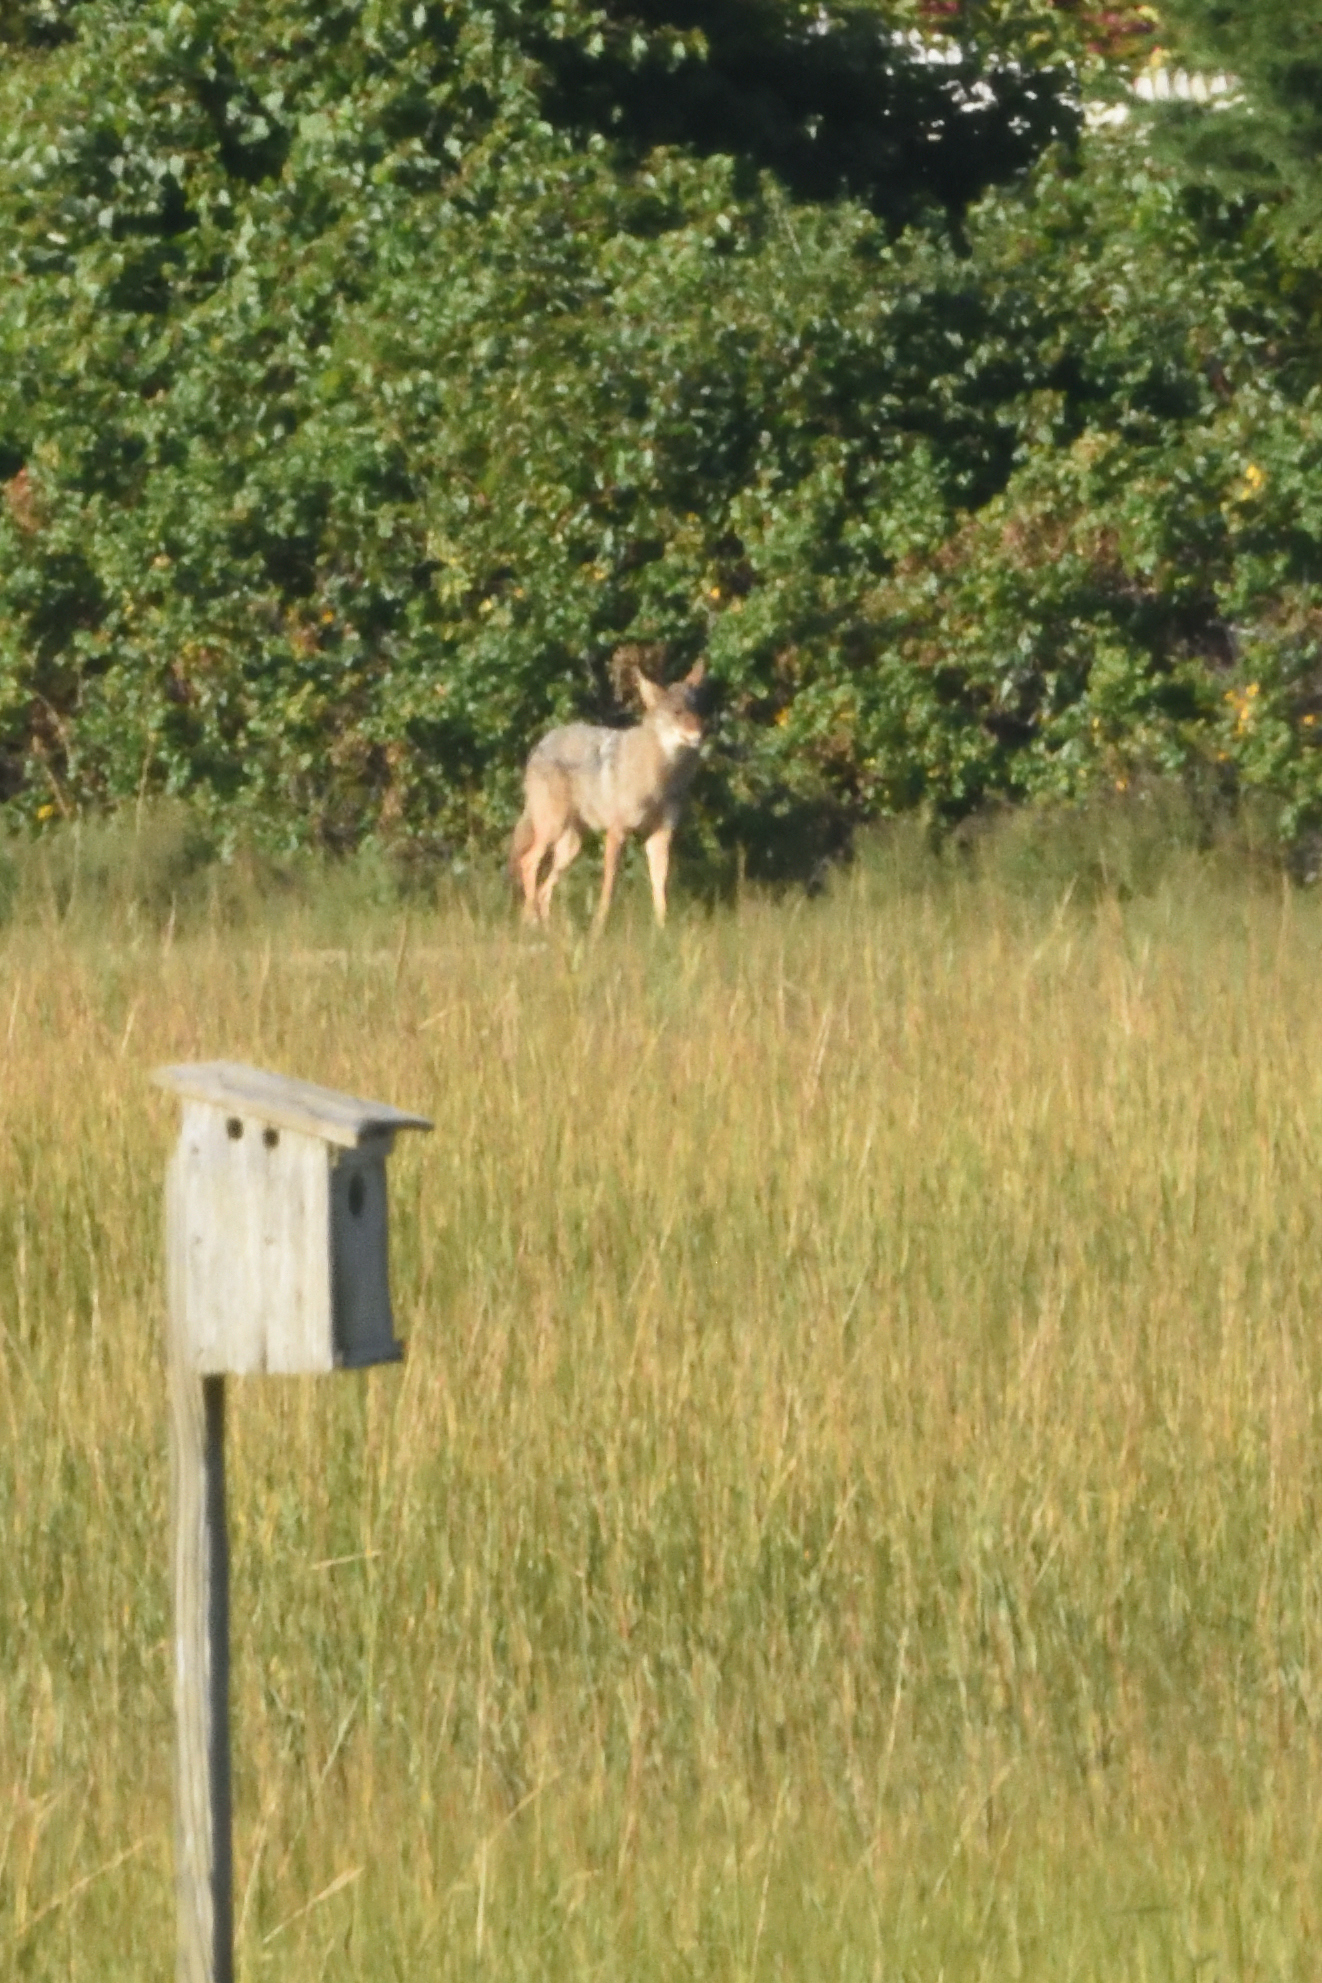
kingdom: Animalia
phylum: Chordata
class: Mammalia
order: Carnivora
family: Canidae
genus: Canis
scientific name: Canis latrans
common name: Coyote
